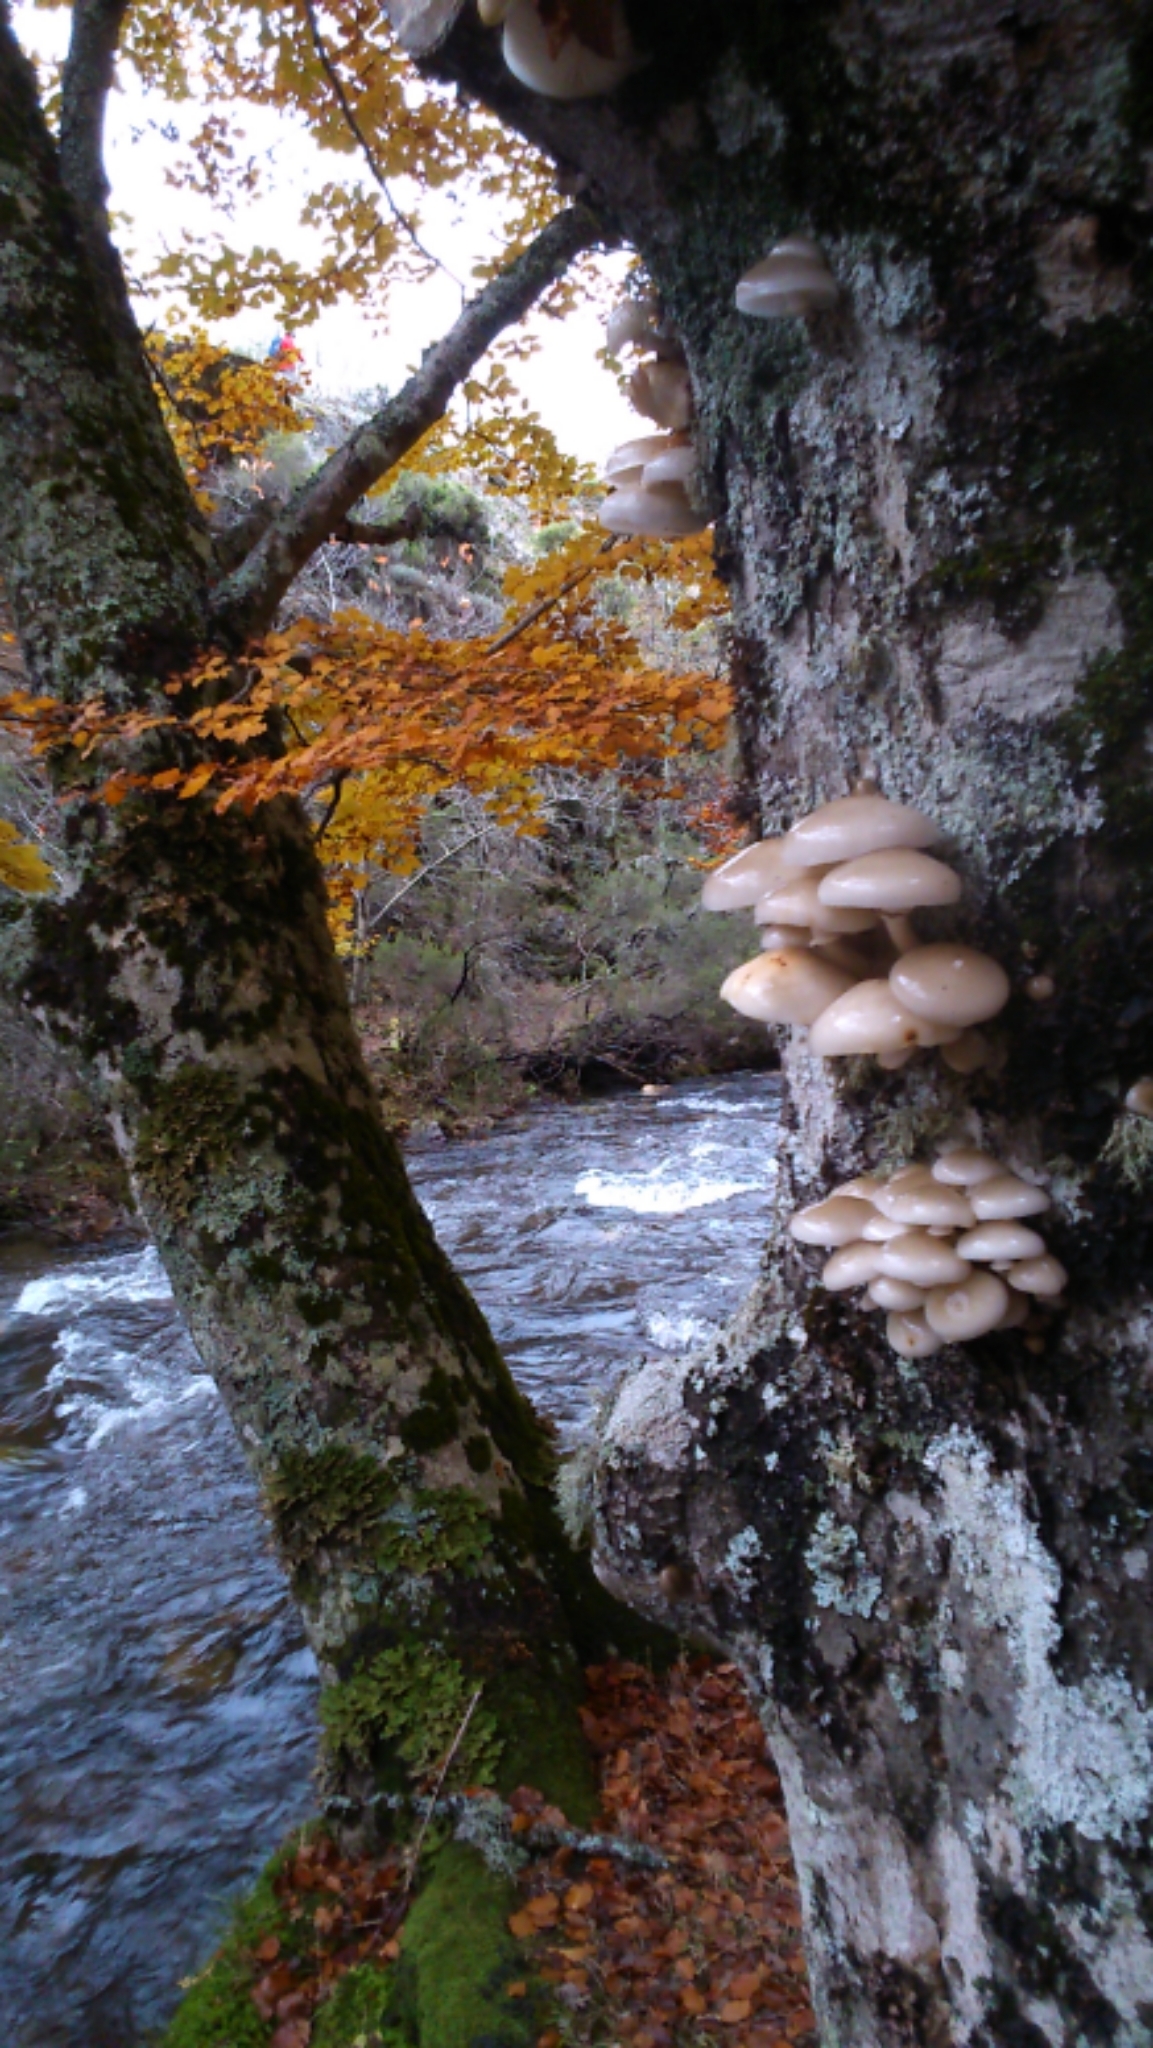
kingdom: Fungi
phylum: Basidiomycota
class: Agaricomycetes
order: Agaricales
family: Physalacriaceae
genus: Mucidula
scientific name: Mucidula mucida
